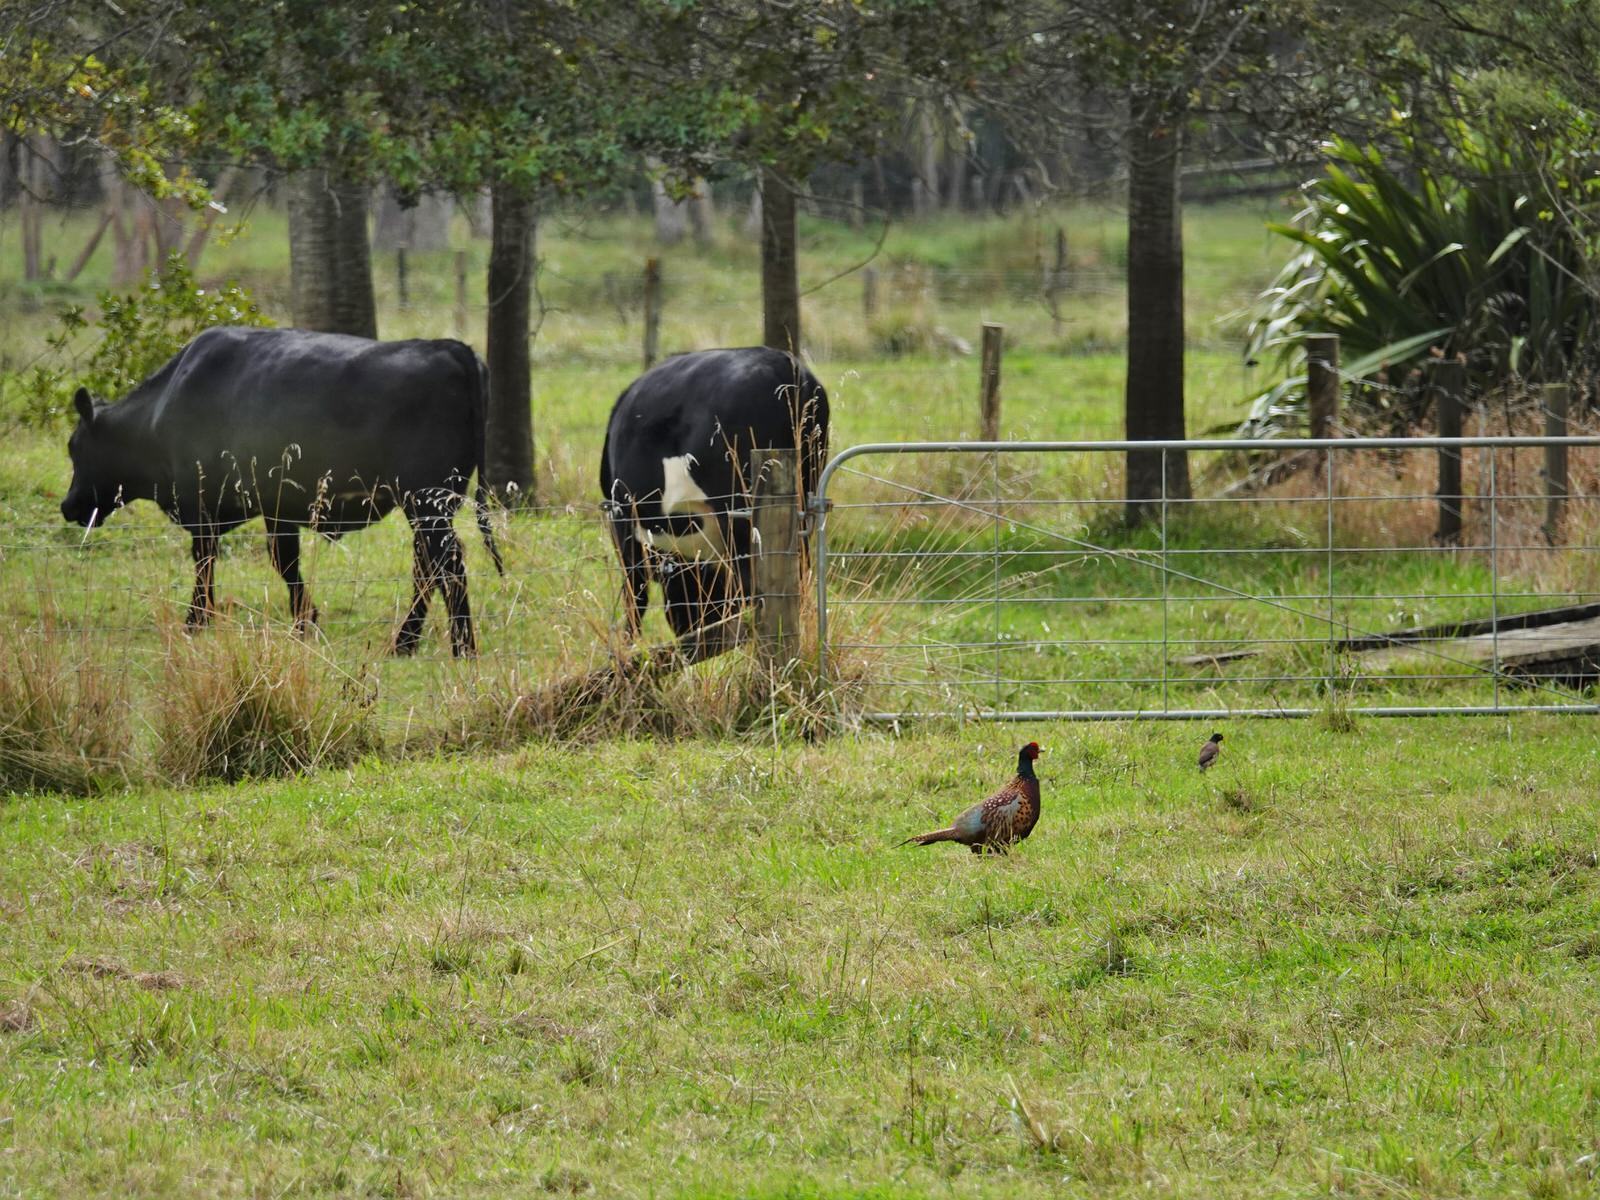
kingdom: Animalia
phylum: Chordata
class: Aves
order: Galliformes
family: Phasianidae
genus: Phasianus
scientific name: Phasianus colchicus
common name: Common pheasant
